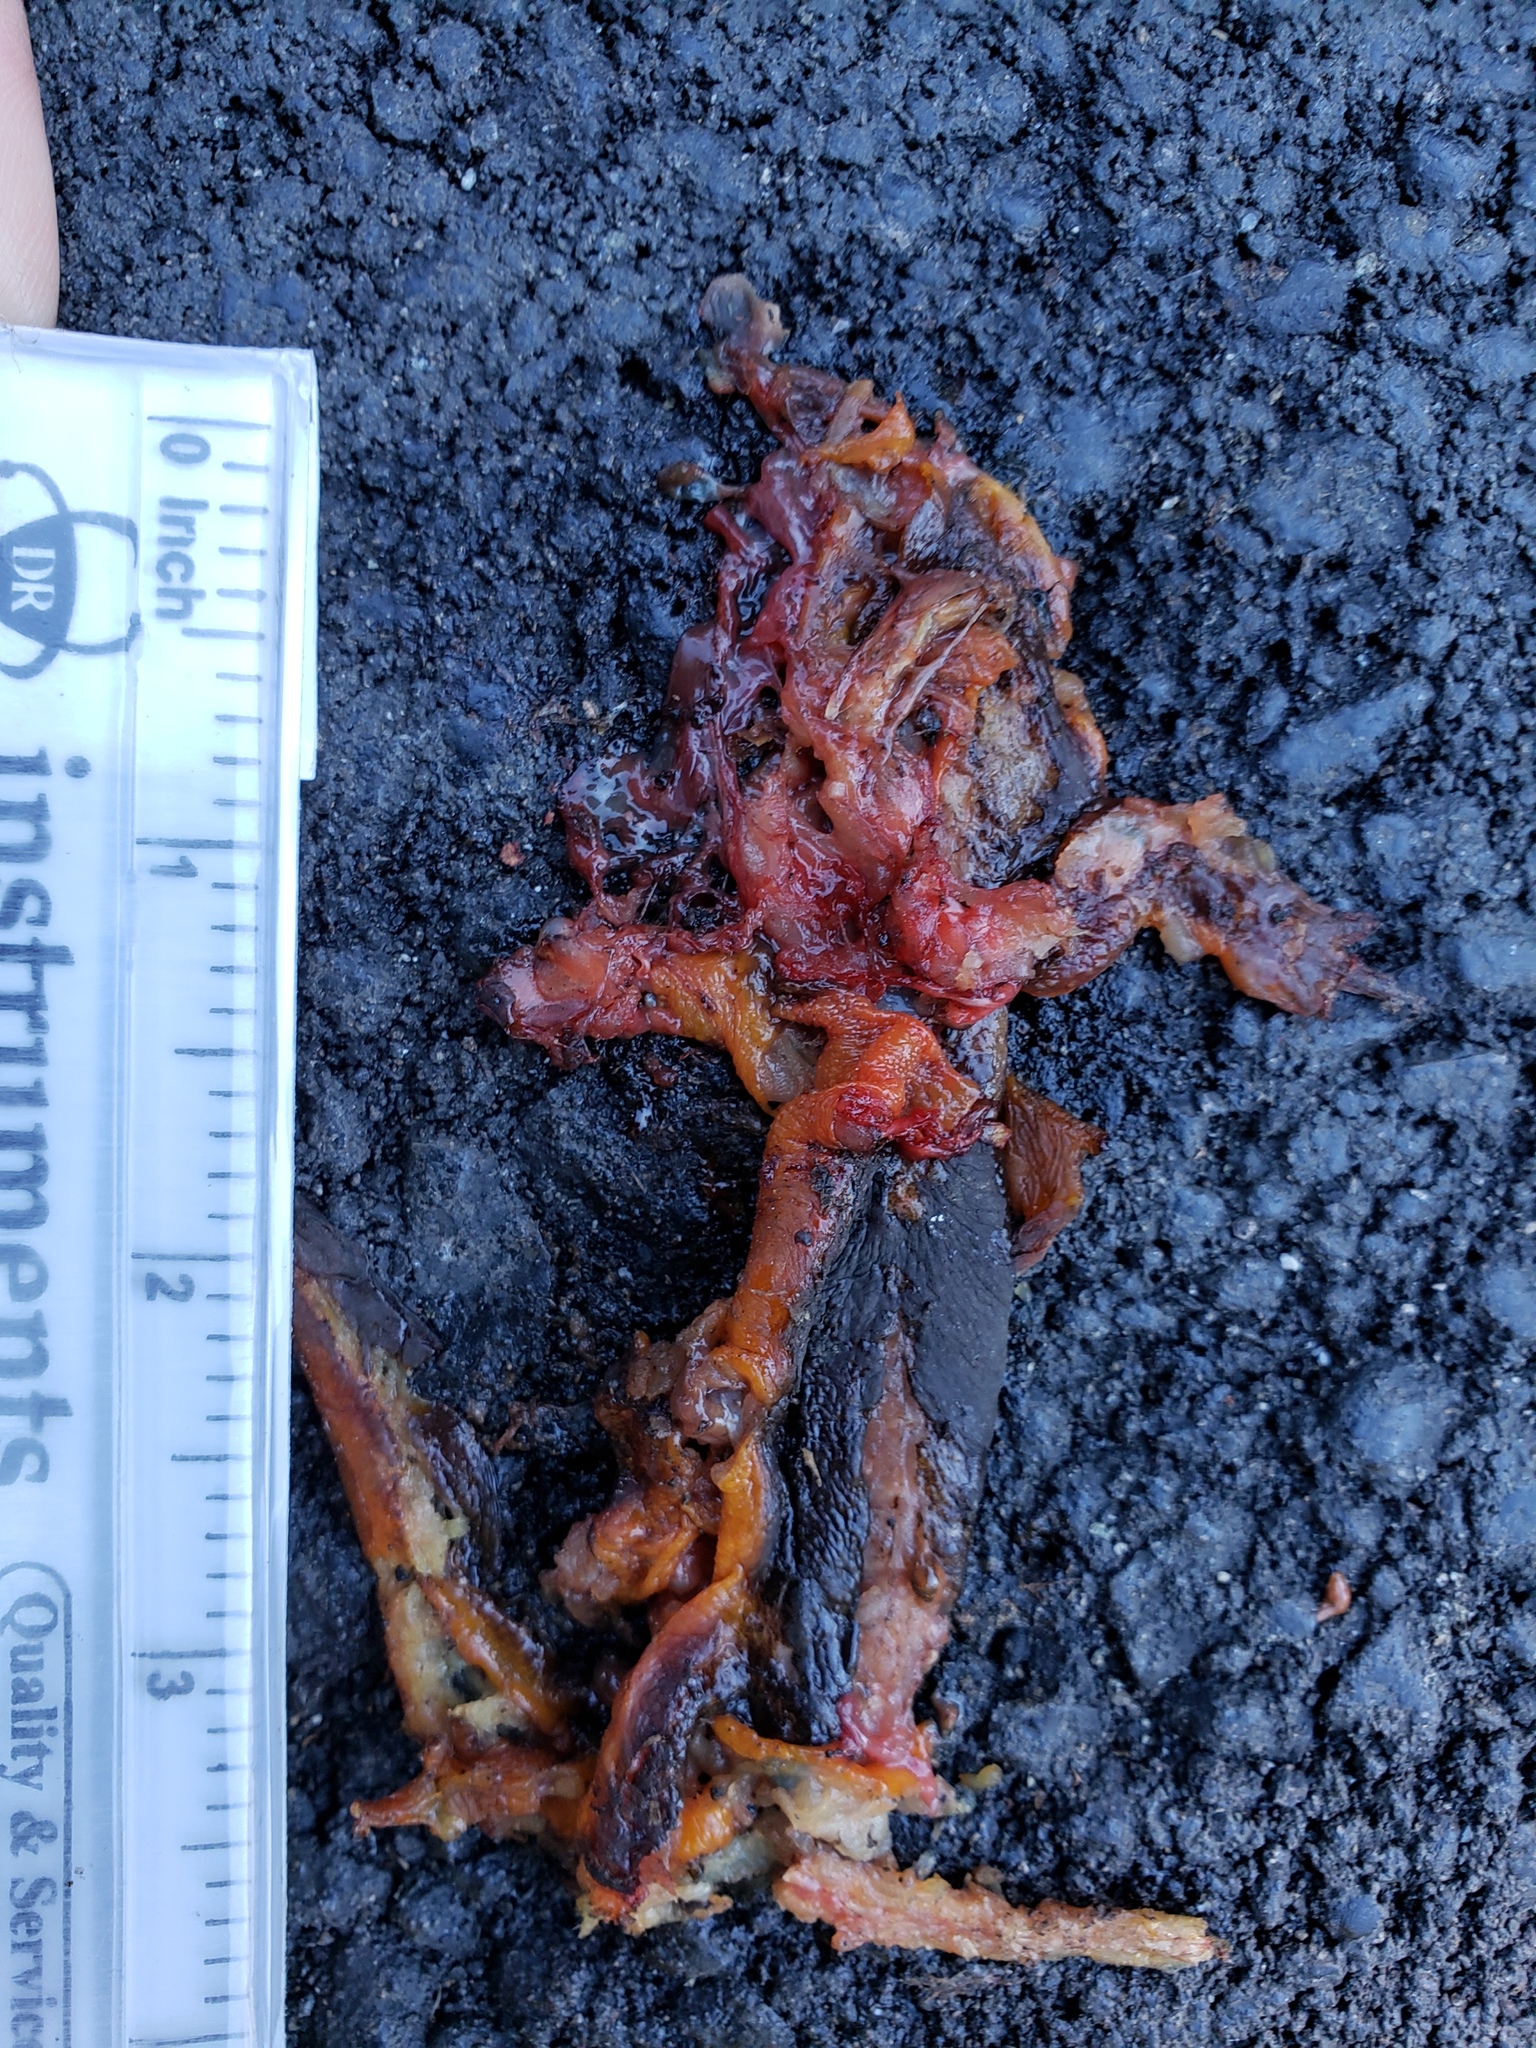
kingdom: Animalia
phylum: Chordata
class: Amphibia
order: Caudata
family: Salamandridae
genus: Taricha
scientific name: Taricha
